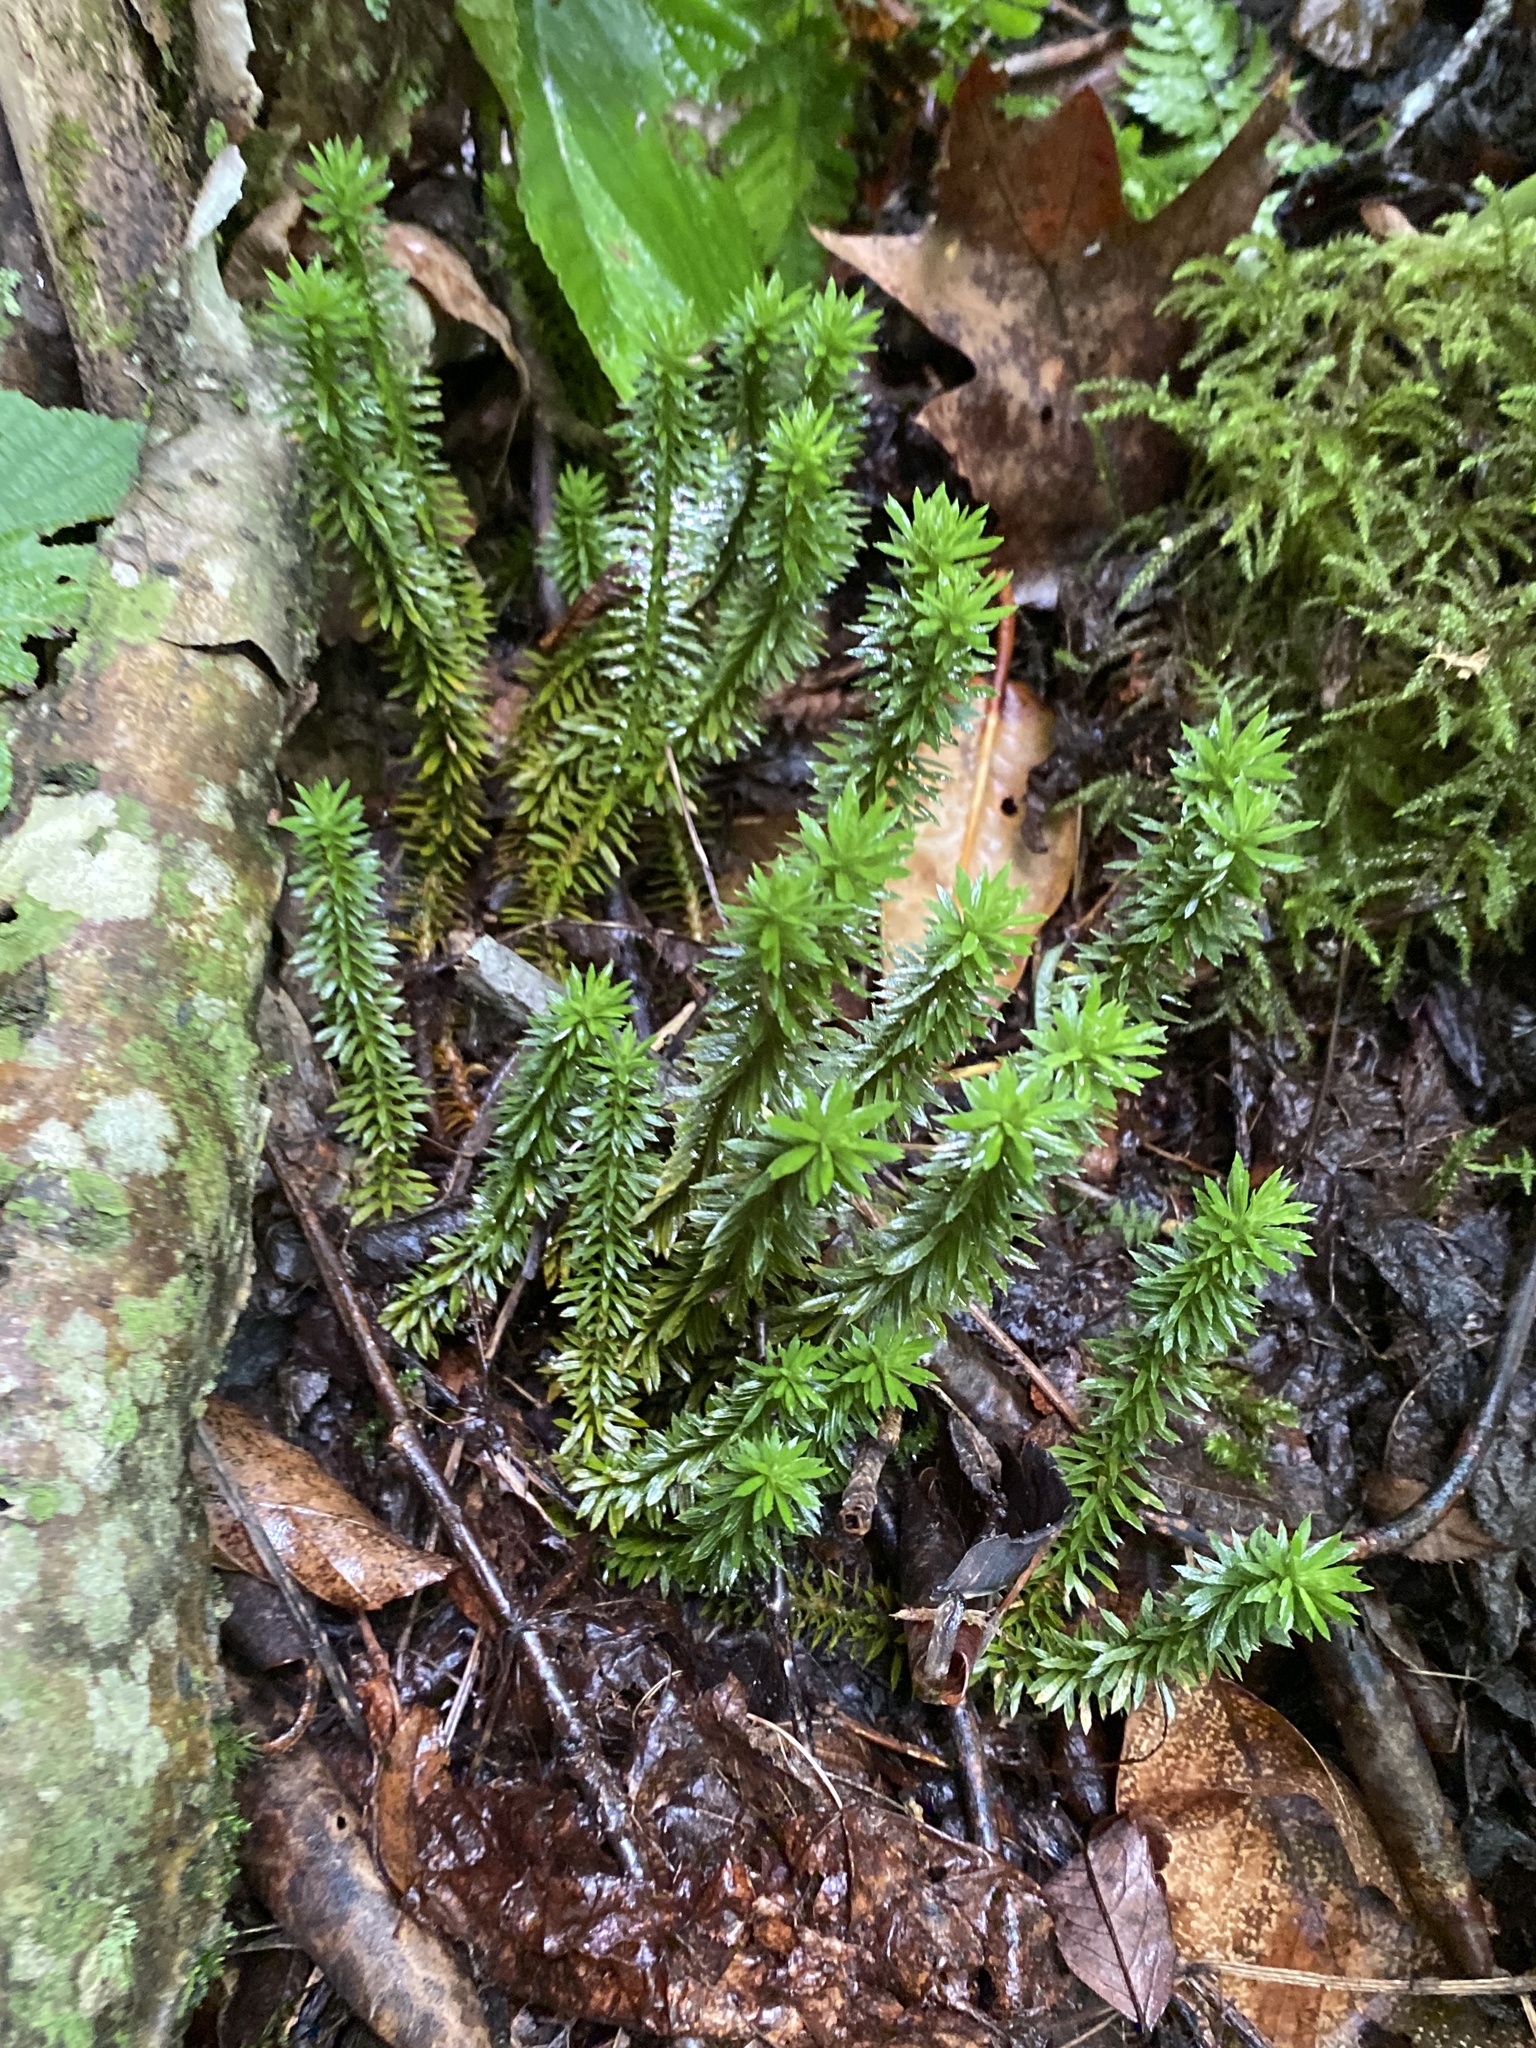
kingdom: Plantae
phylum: Tracheophyta
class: Lycopodiopsida
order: Lycopodiales
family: Lycopodiaceae
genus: Huperzia
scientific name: Huperzia lucidula
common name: Shining clubmoss
